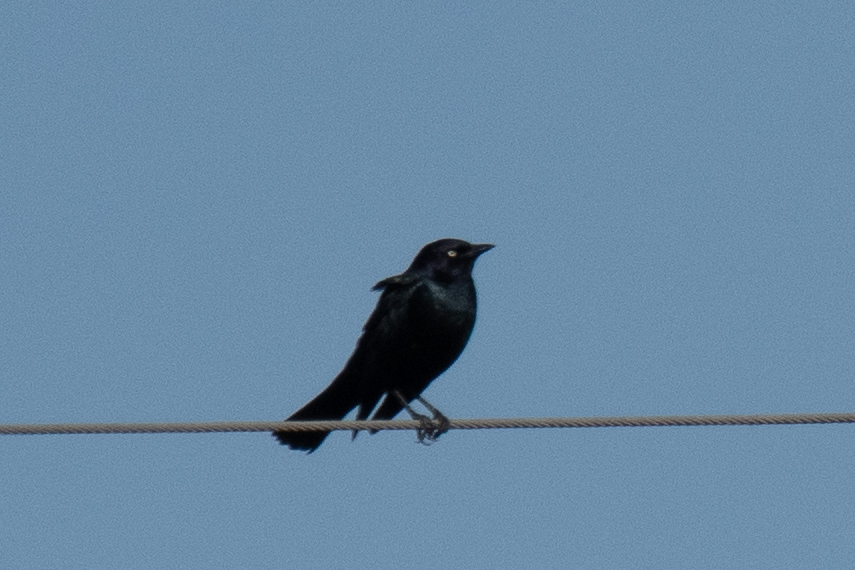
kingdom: Animalia
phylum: Chordata
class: Aves
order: Passeriformes
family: Icteridae
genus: Euphagus
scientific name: Euphagus cyanocephalus
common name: Brewer's blackbird
